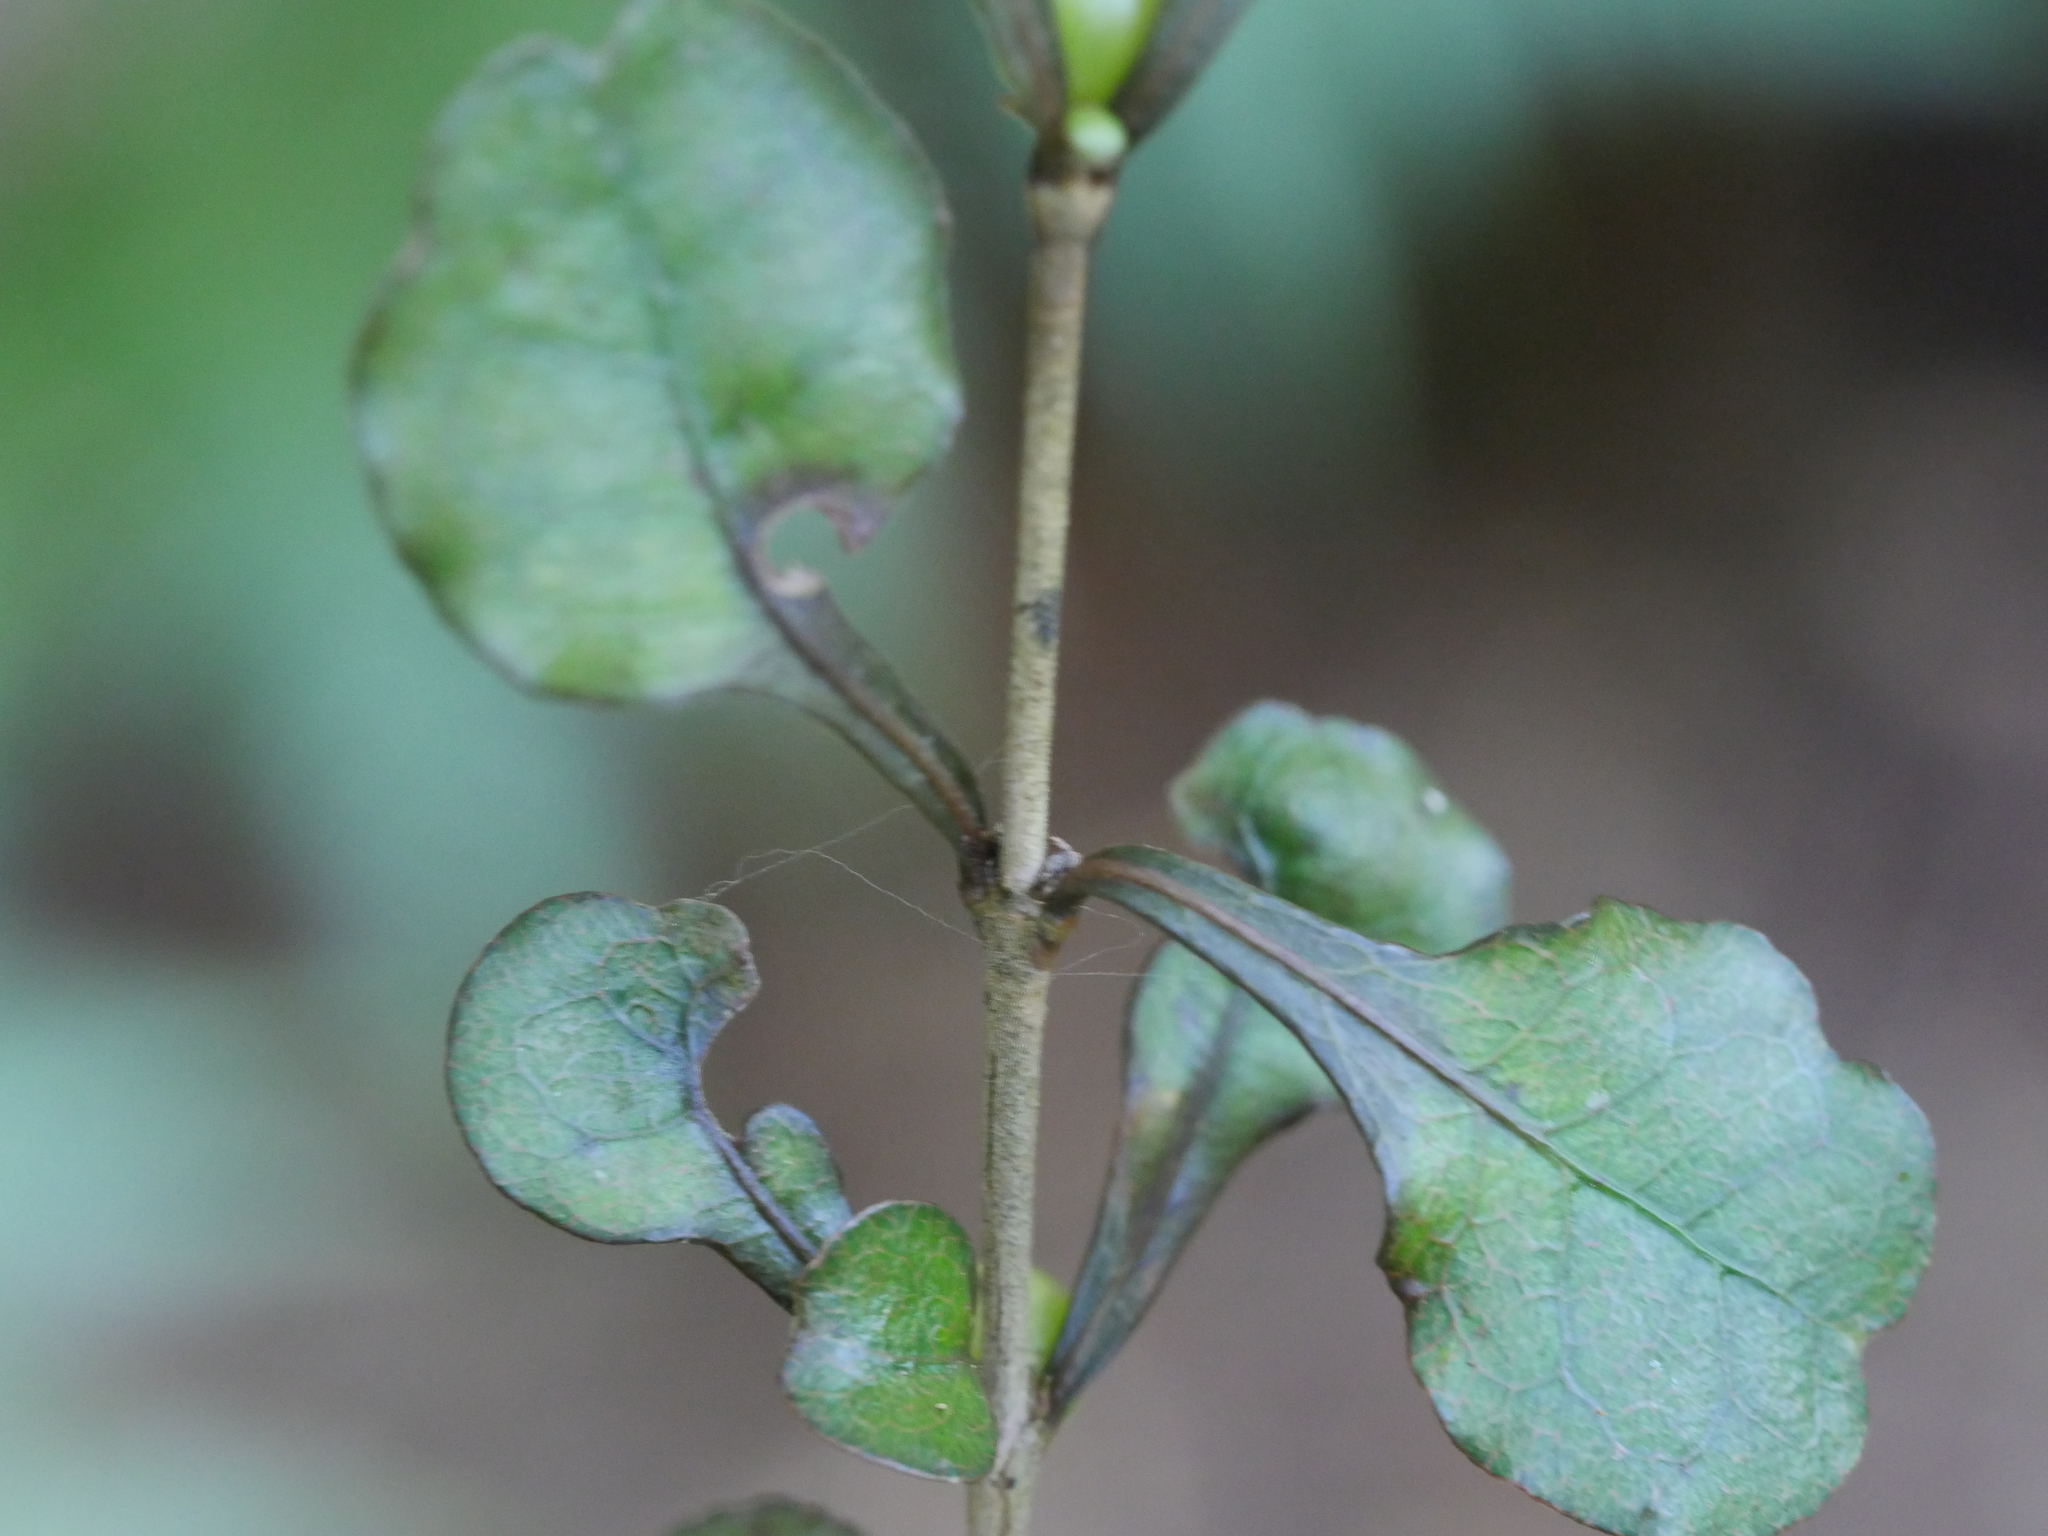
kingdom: Plantae
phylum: Tracheophyta
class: Magnoliopsida
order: Gentianales
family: Rubiaceae
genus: Coprosma
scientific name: Coprosma spathulata
